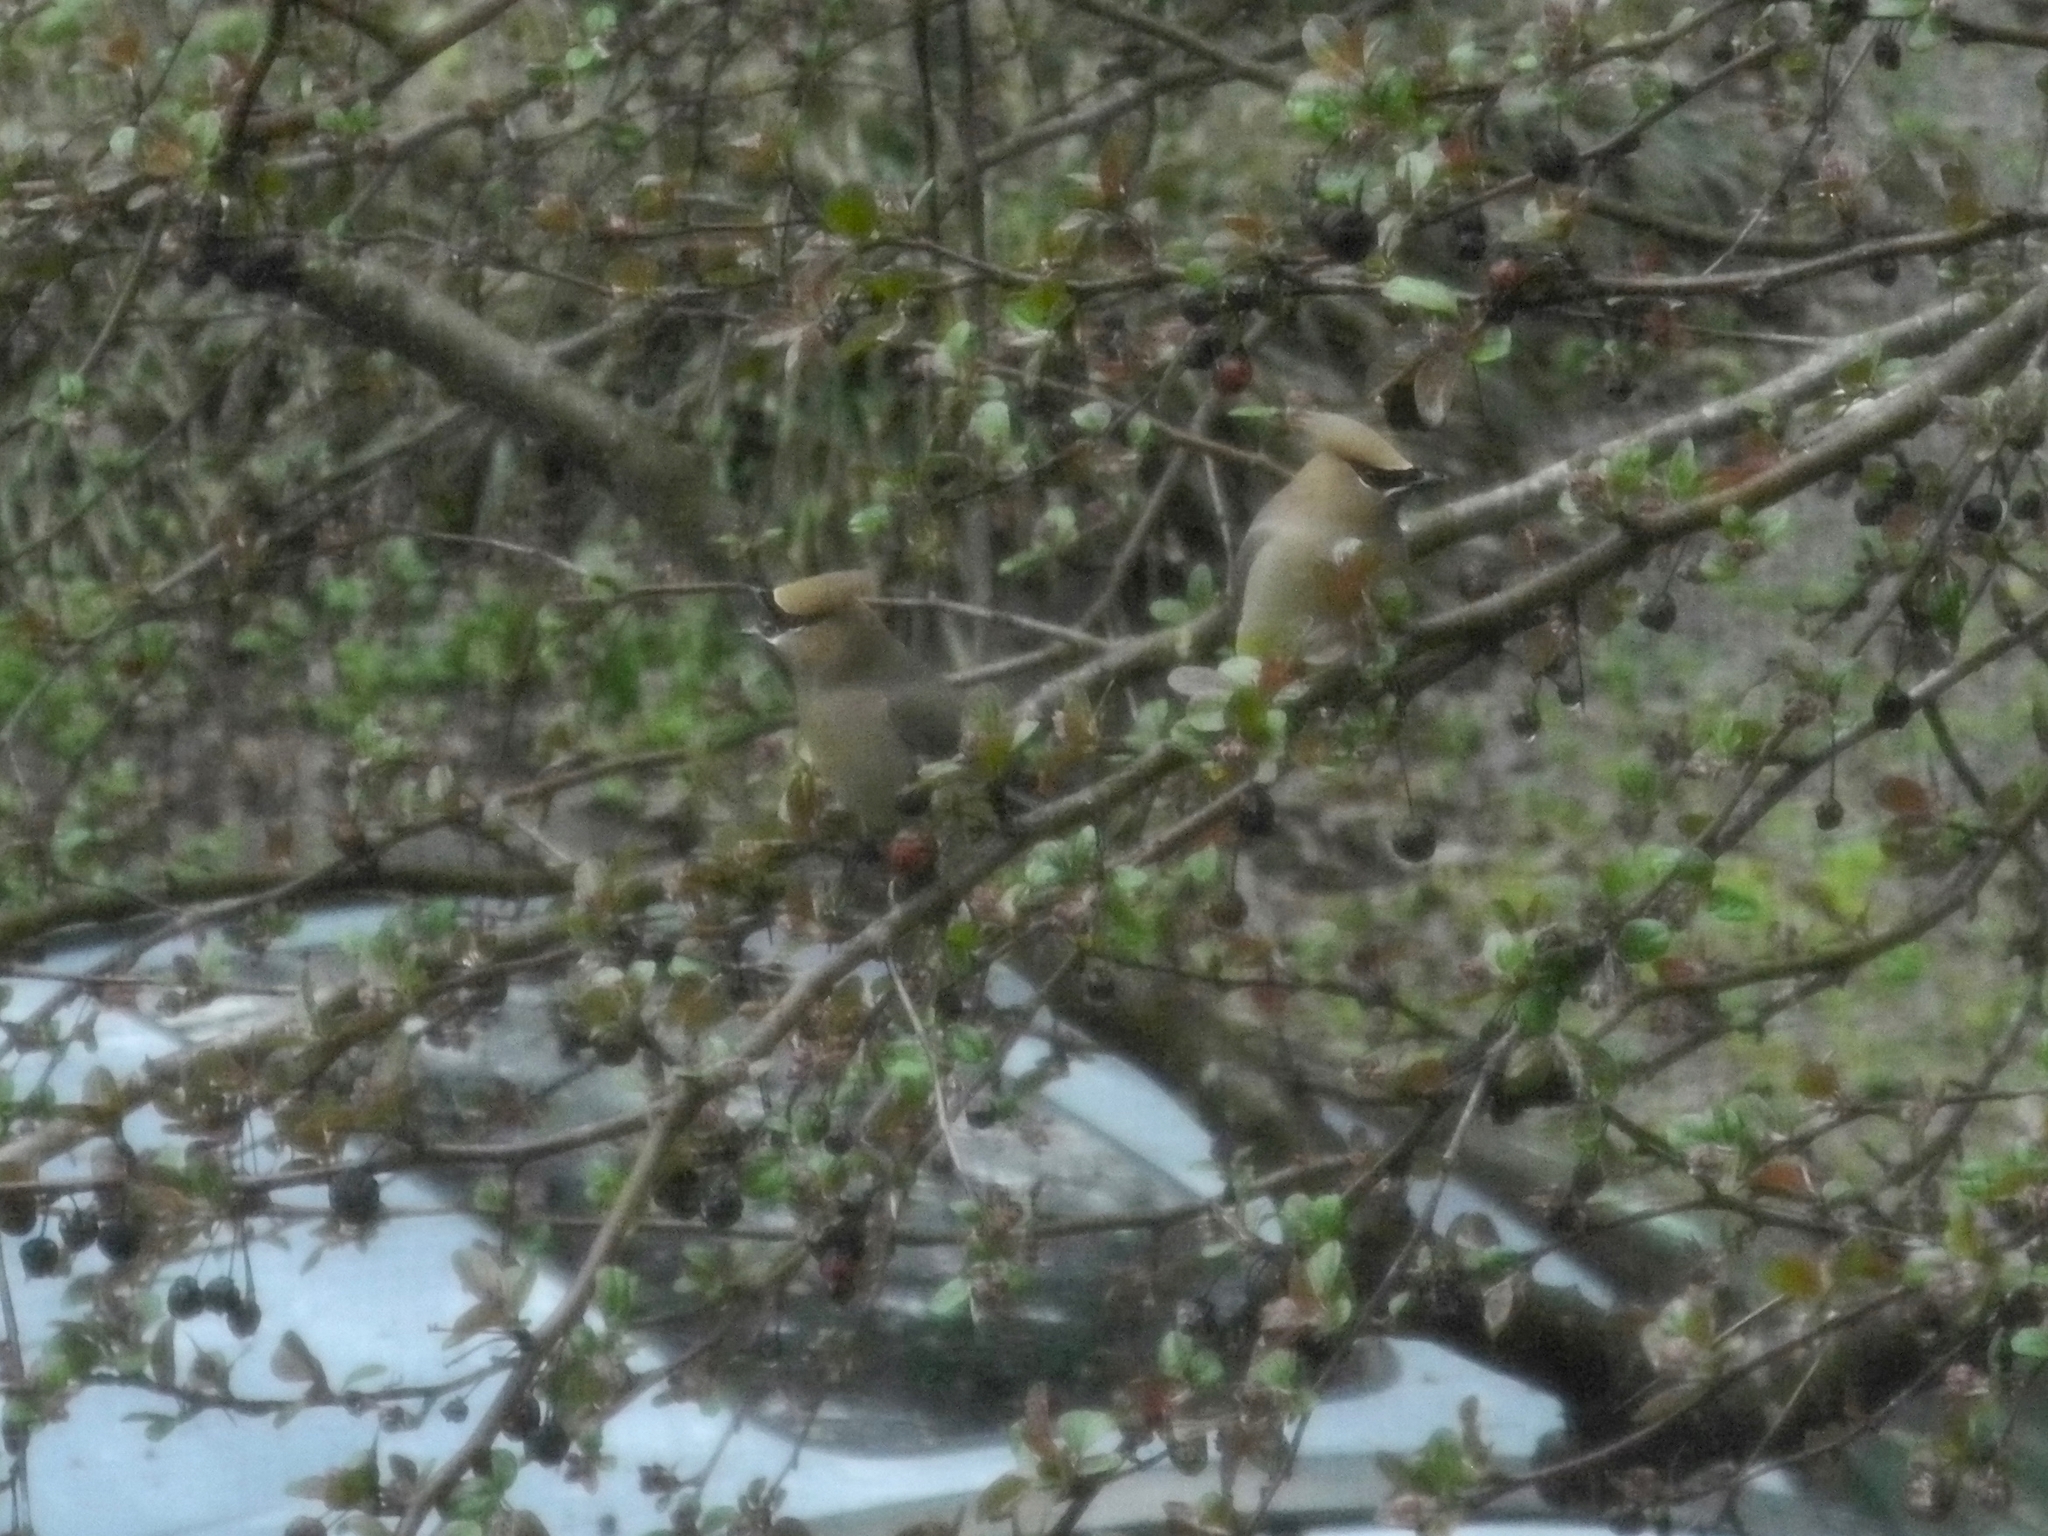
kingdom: Animalia
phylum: Chordata
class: Aves
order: Passeriformes
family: Bombycillidae
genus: Bombycilla
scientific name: Bombycilla cedrorum
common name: Cedar waxwing
